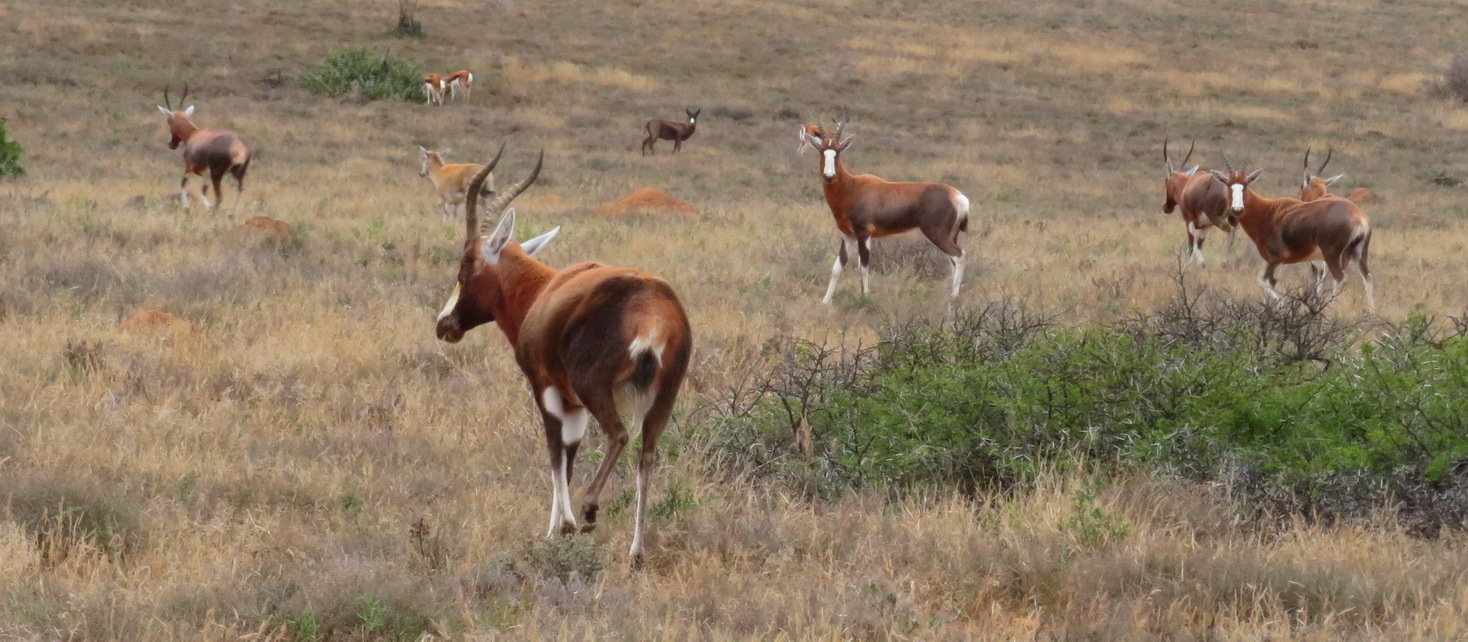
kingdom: Animalia
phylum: Chordata
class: Mammalia
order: Artiodactyla
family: Bovidae
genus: Damaliscus
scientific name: Damaliscus pygargus
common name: Bontebok
